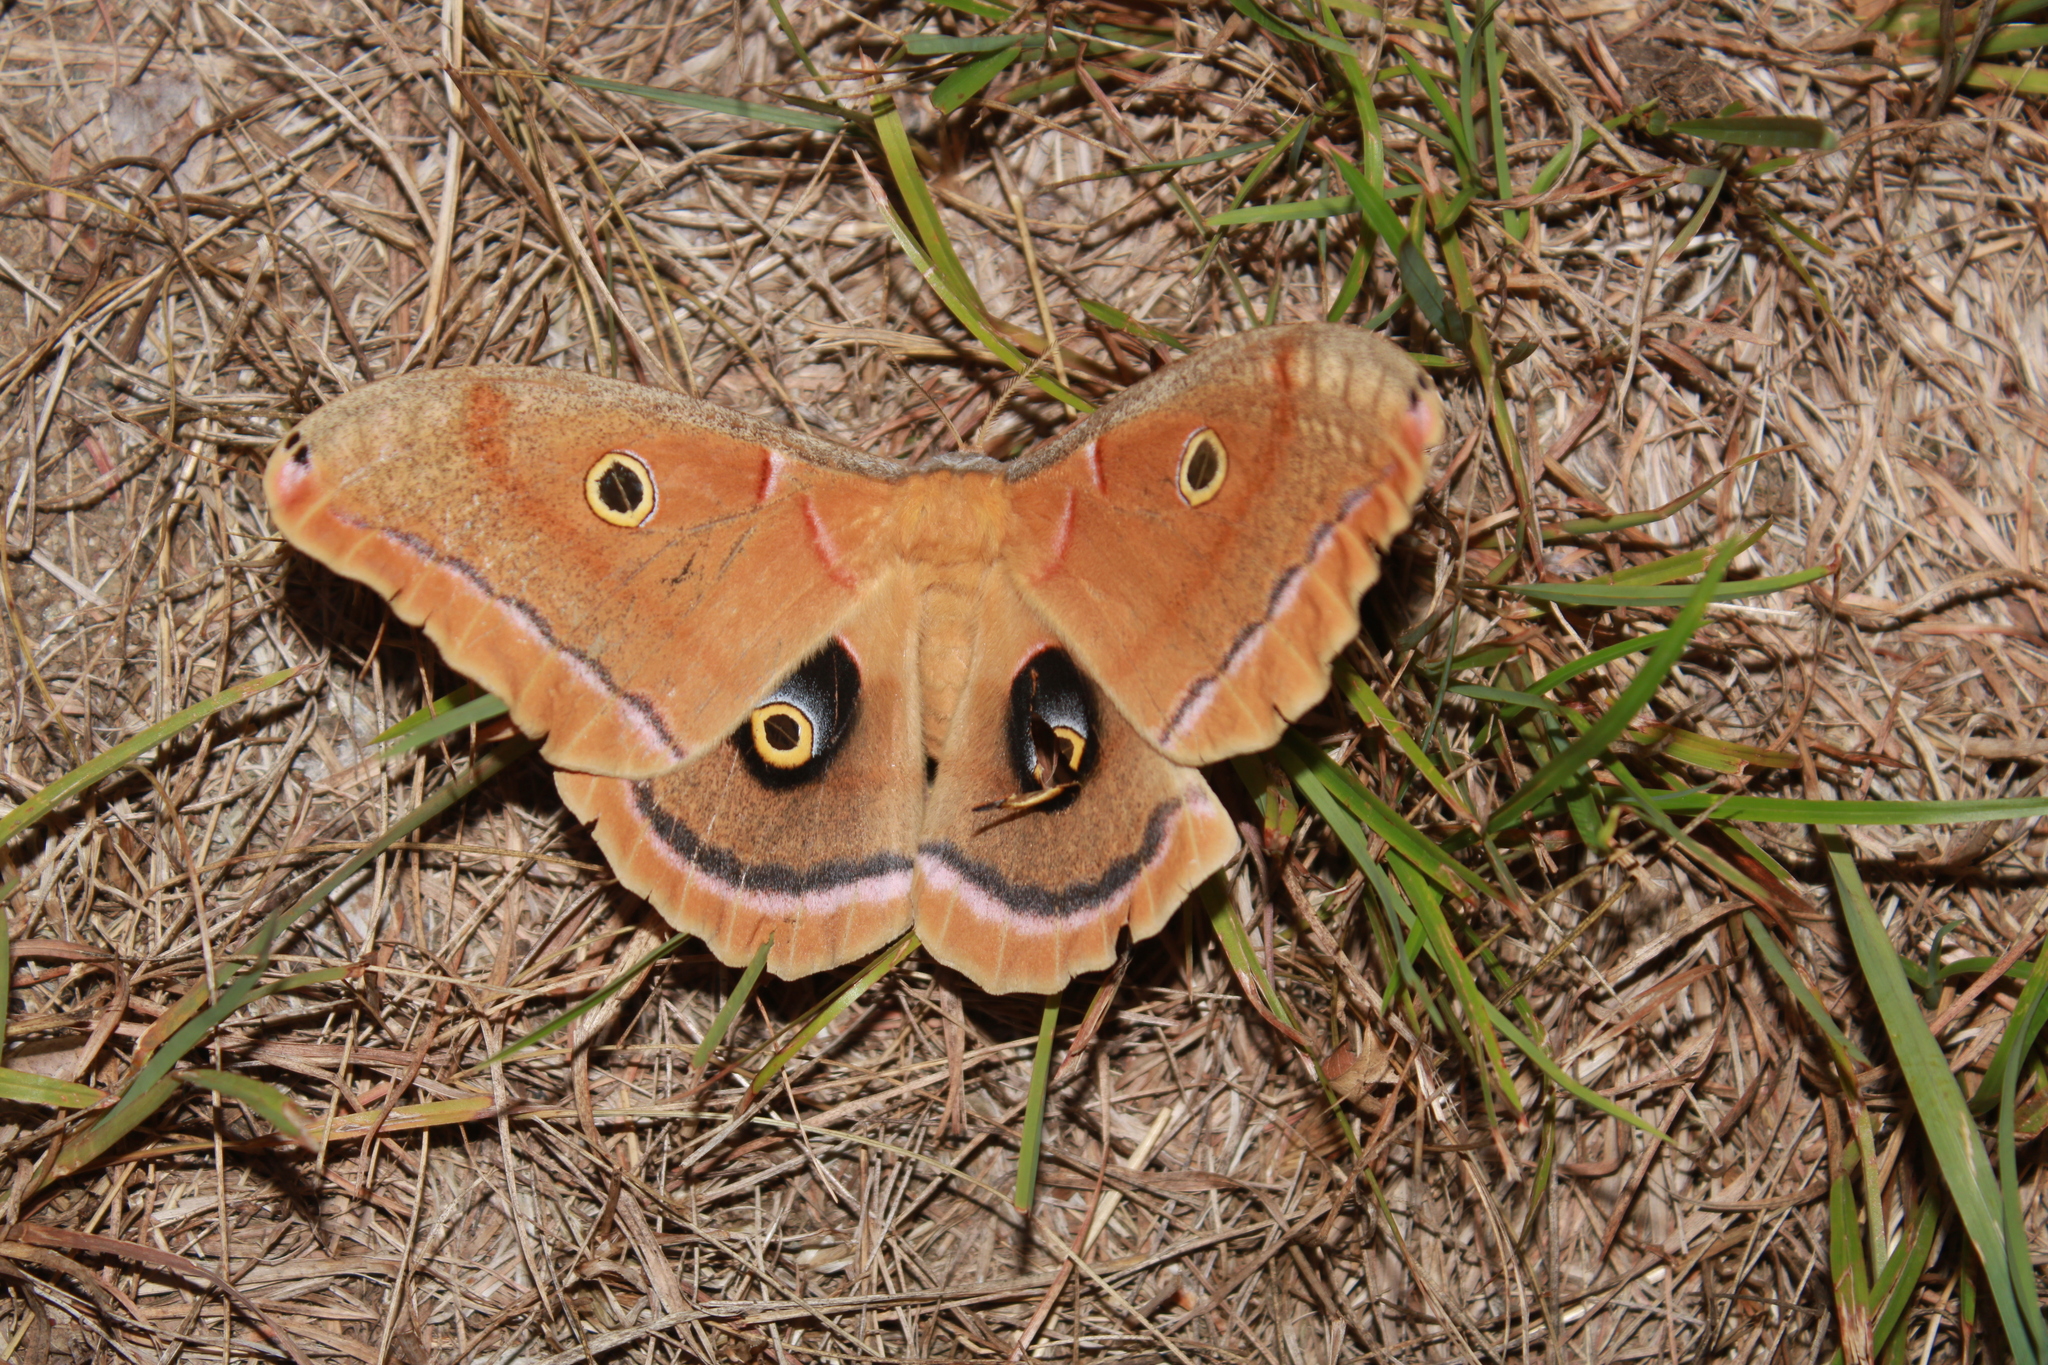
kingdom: Animalia
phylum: Arthropoda
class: Insecta
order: Lepidoptera
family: Saturniidae
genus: Antheraea
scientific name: Antheraea polyphemus
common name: Polyphemus moth
